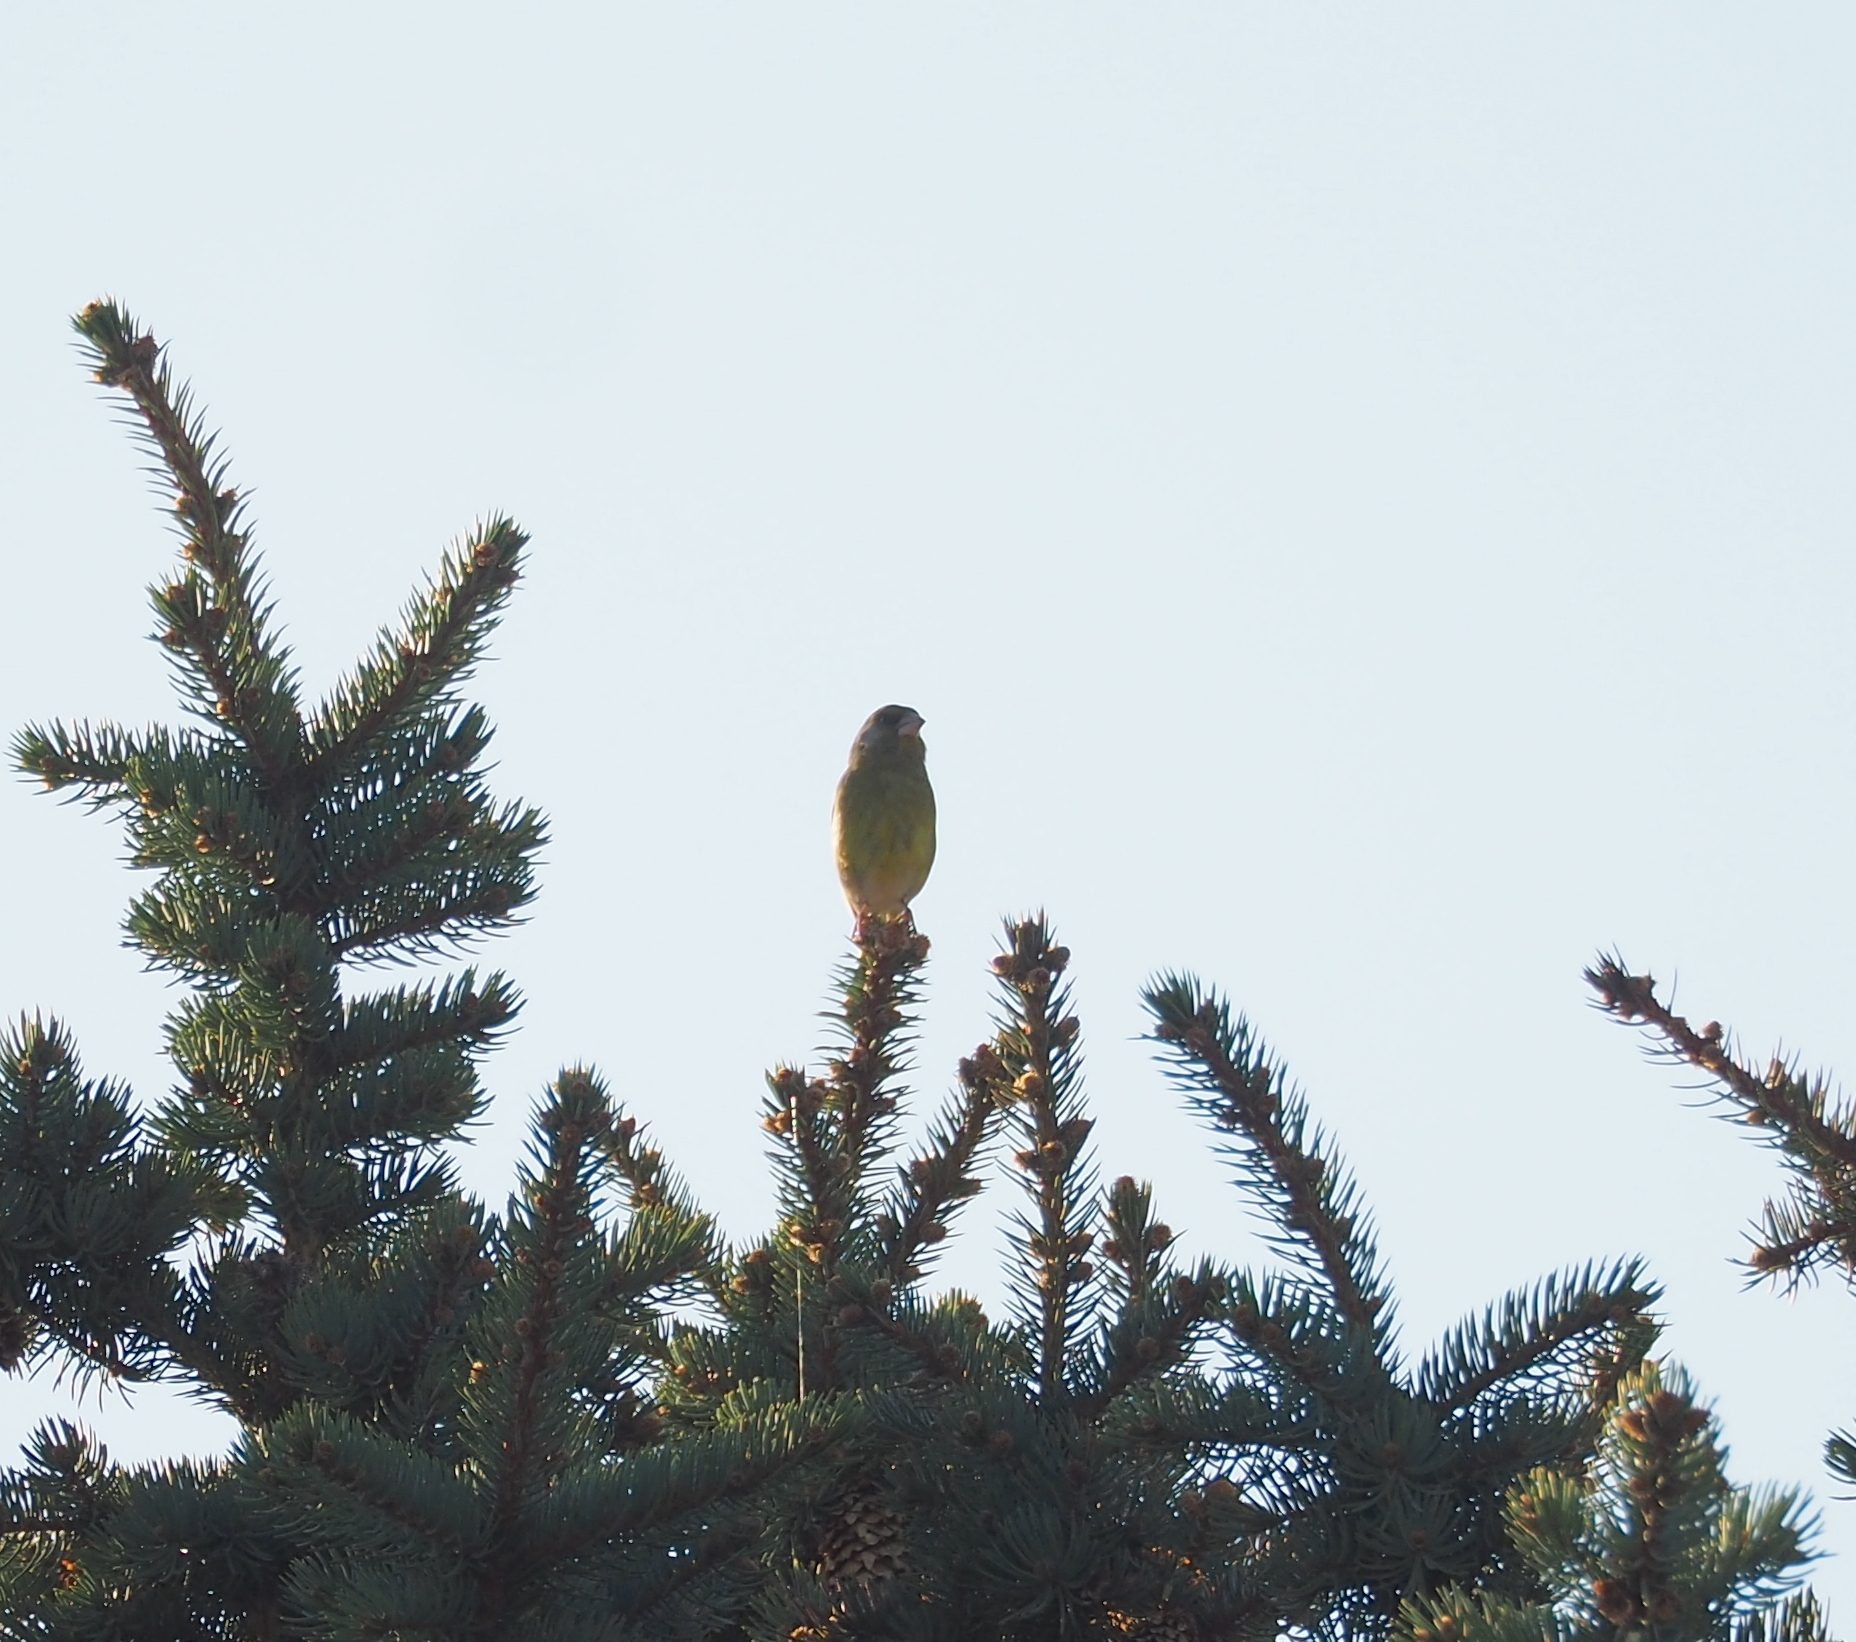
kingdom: Plantae
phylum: Tracheophyta
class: Liliopsida
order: Poales
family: Poaceae
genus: Chloris
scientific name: Chloris chloris
